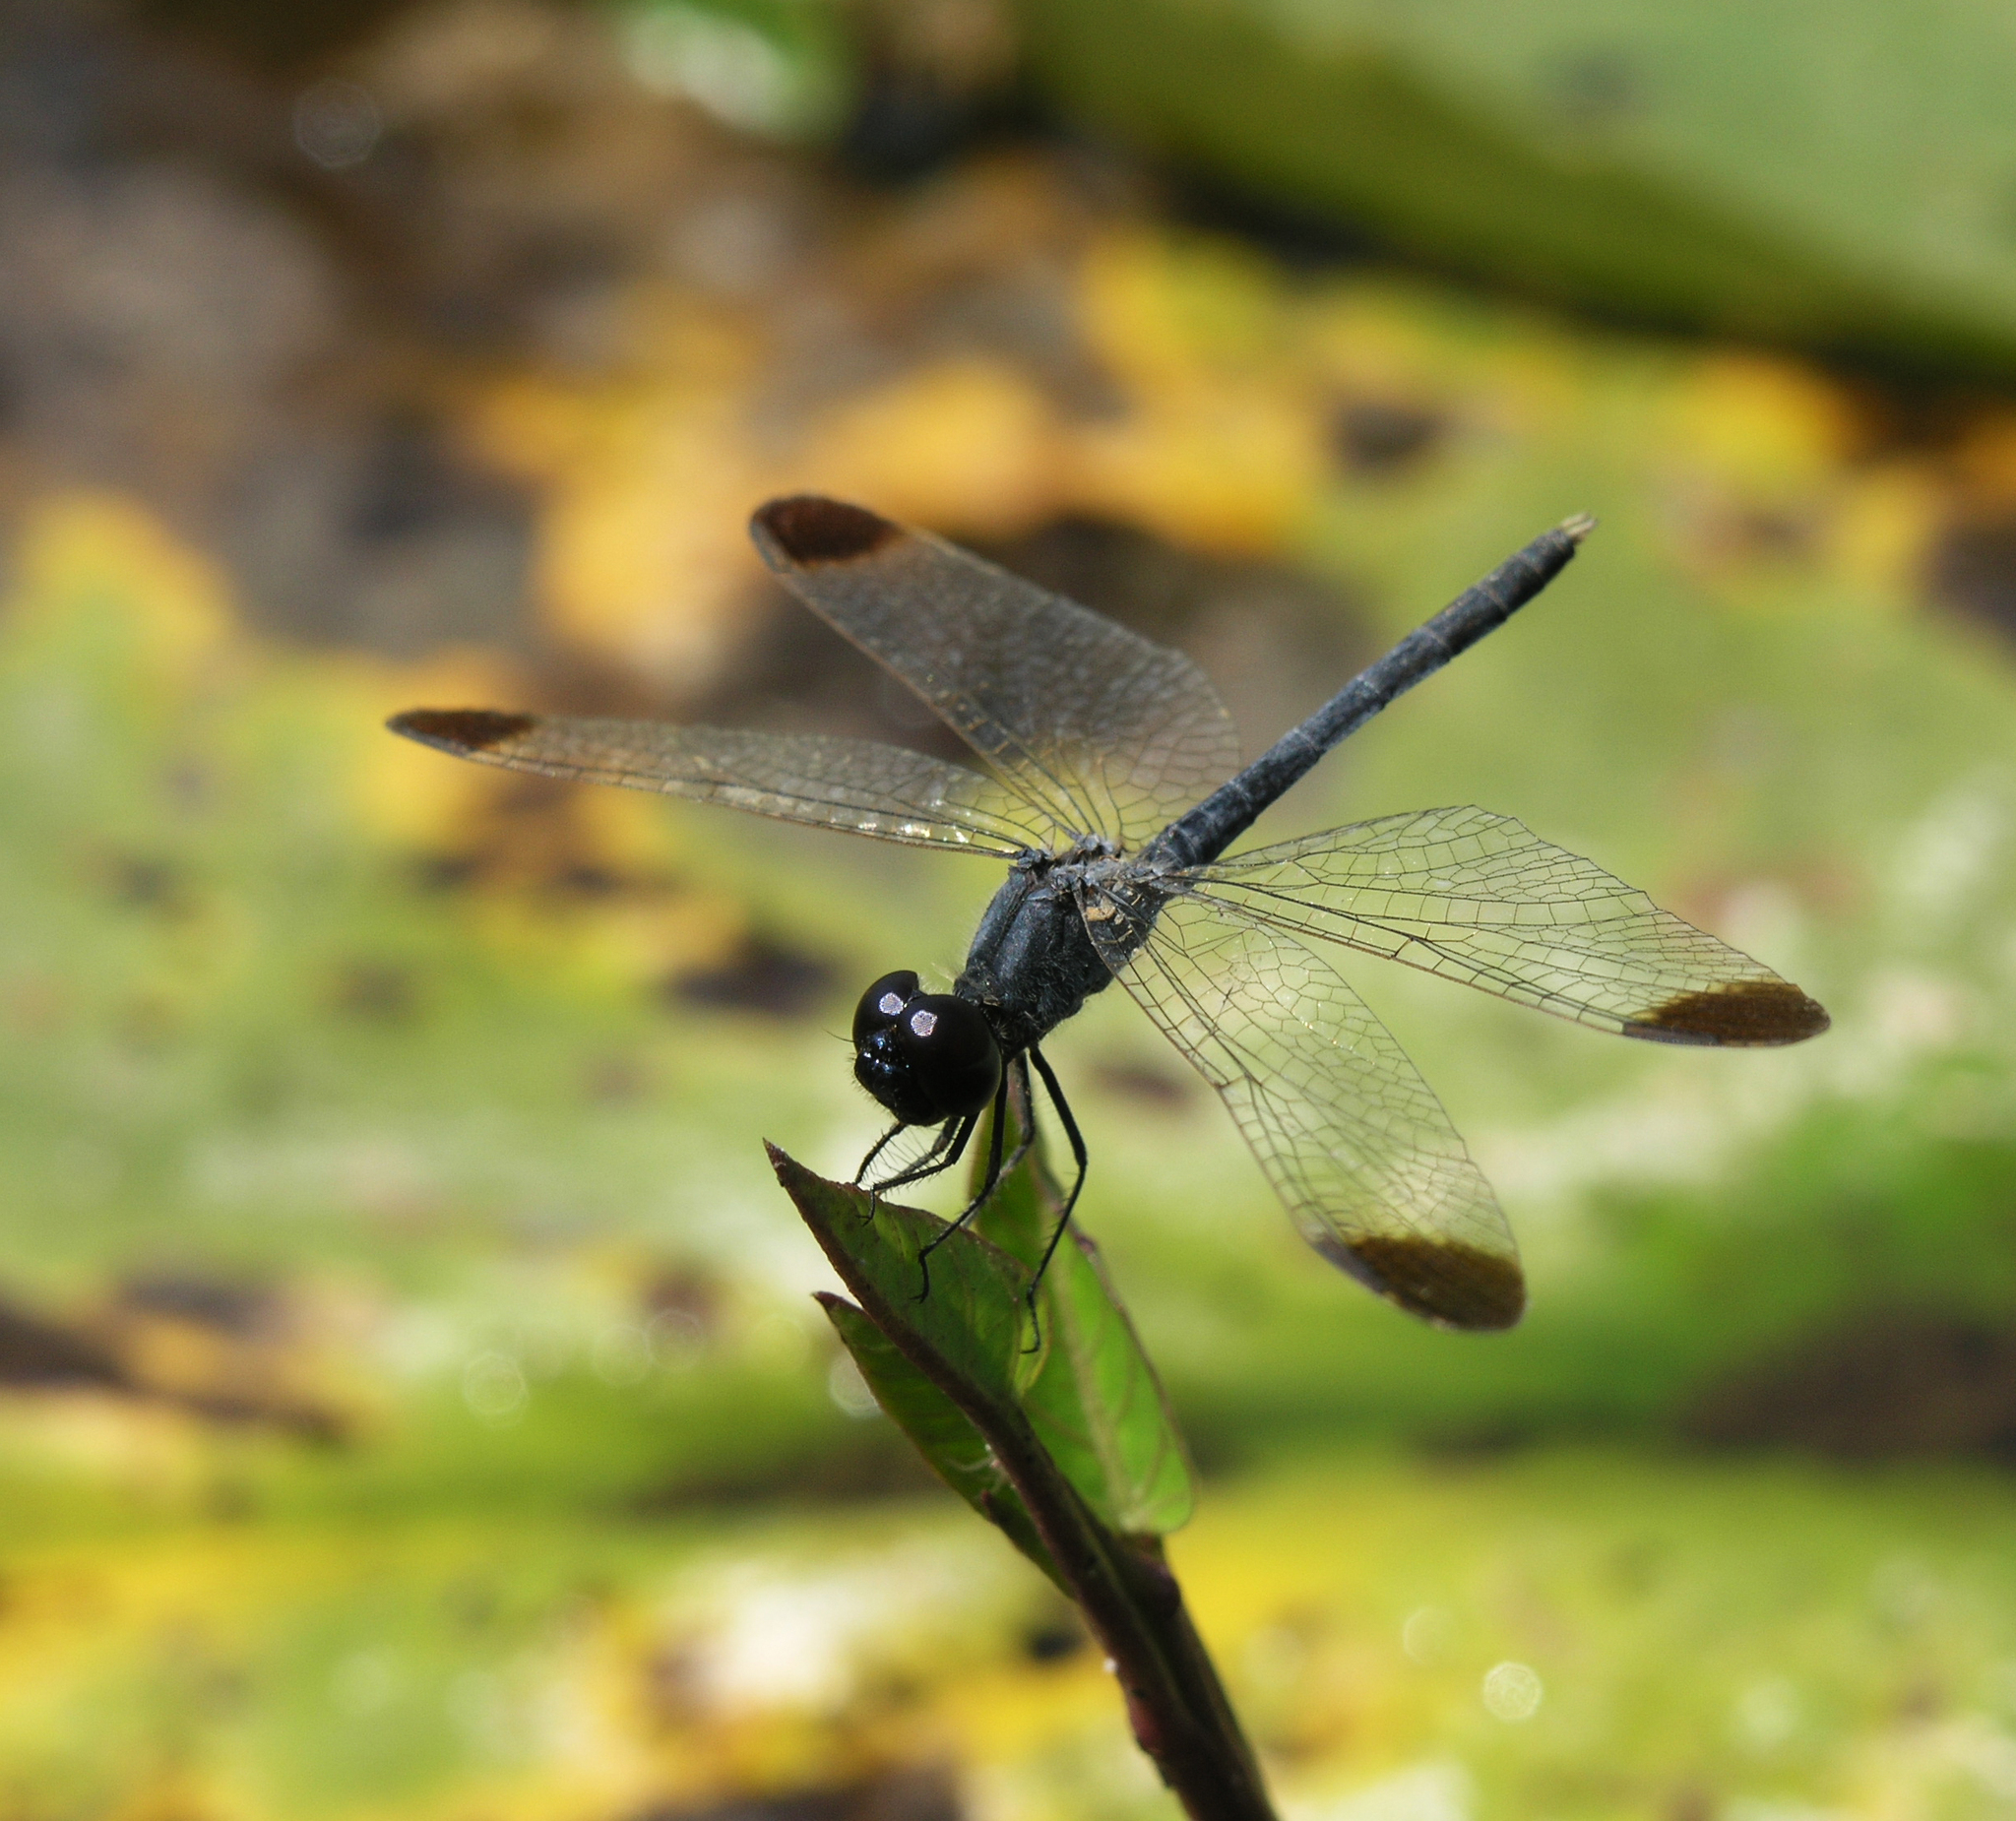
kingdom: Animalia
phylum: Arthropoda
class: Insecta
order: Odonata
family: Libellulidae
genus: Diplacodes
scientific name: Diplacodes nebulosa
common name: Black-tipped percher
